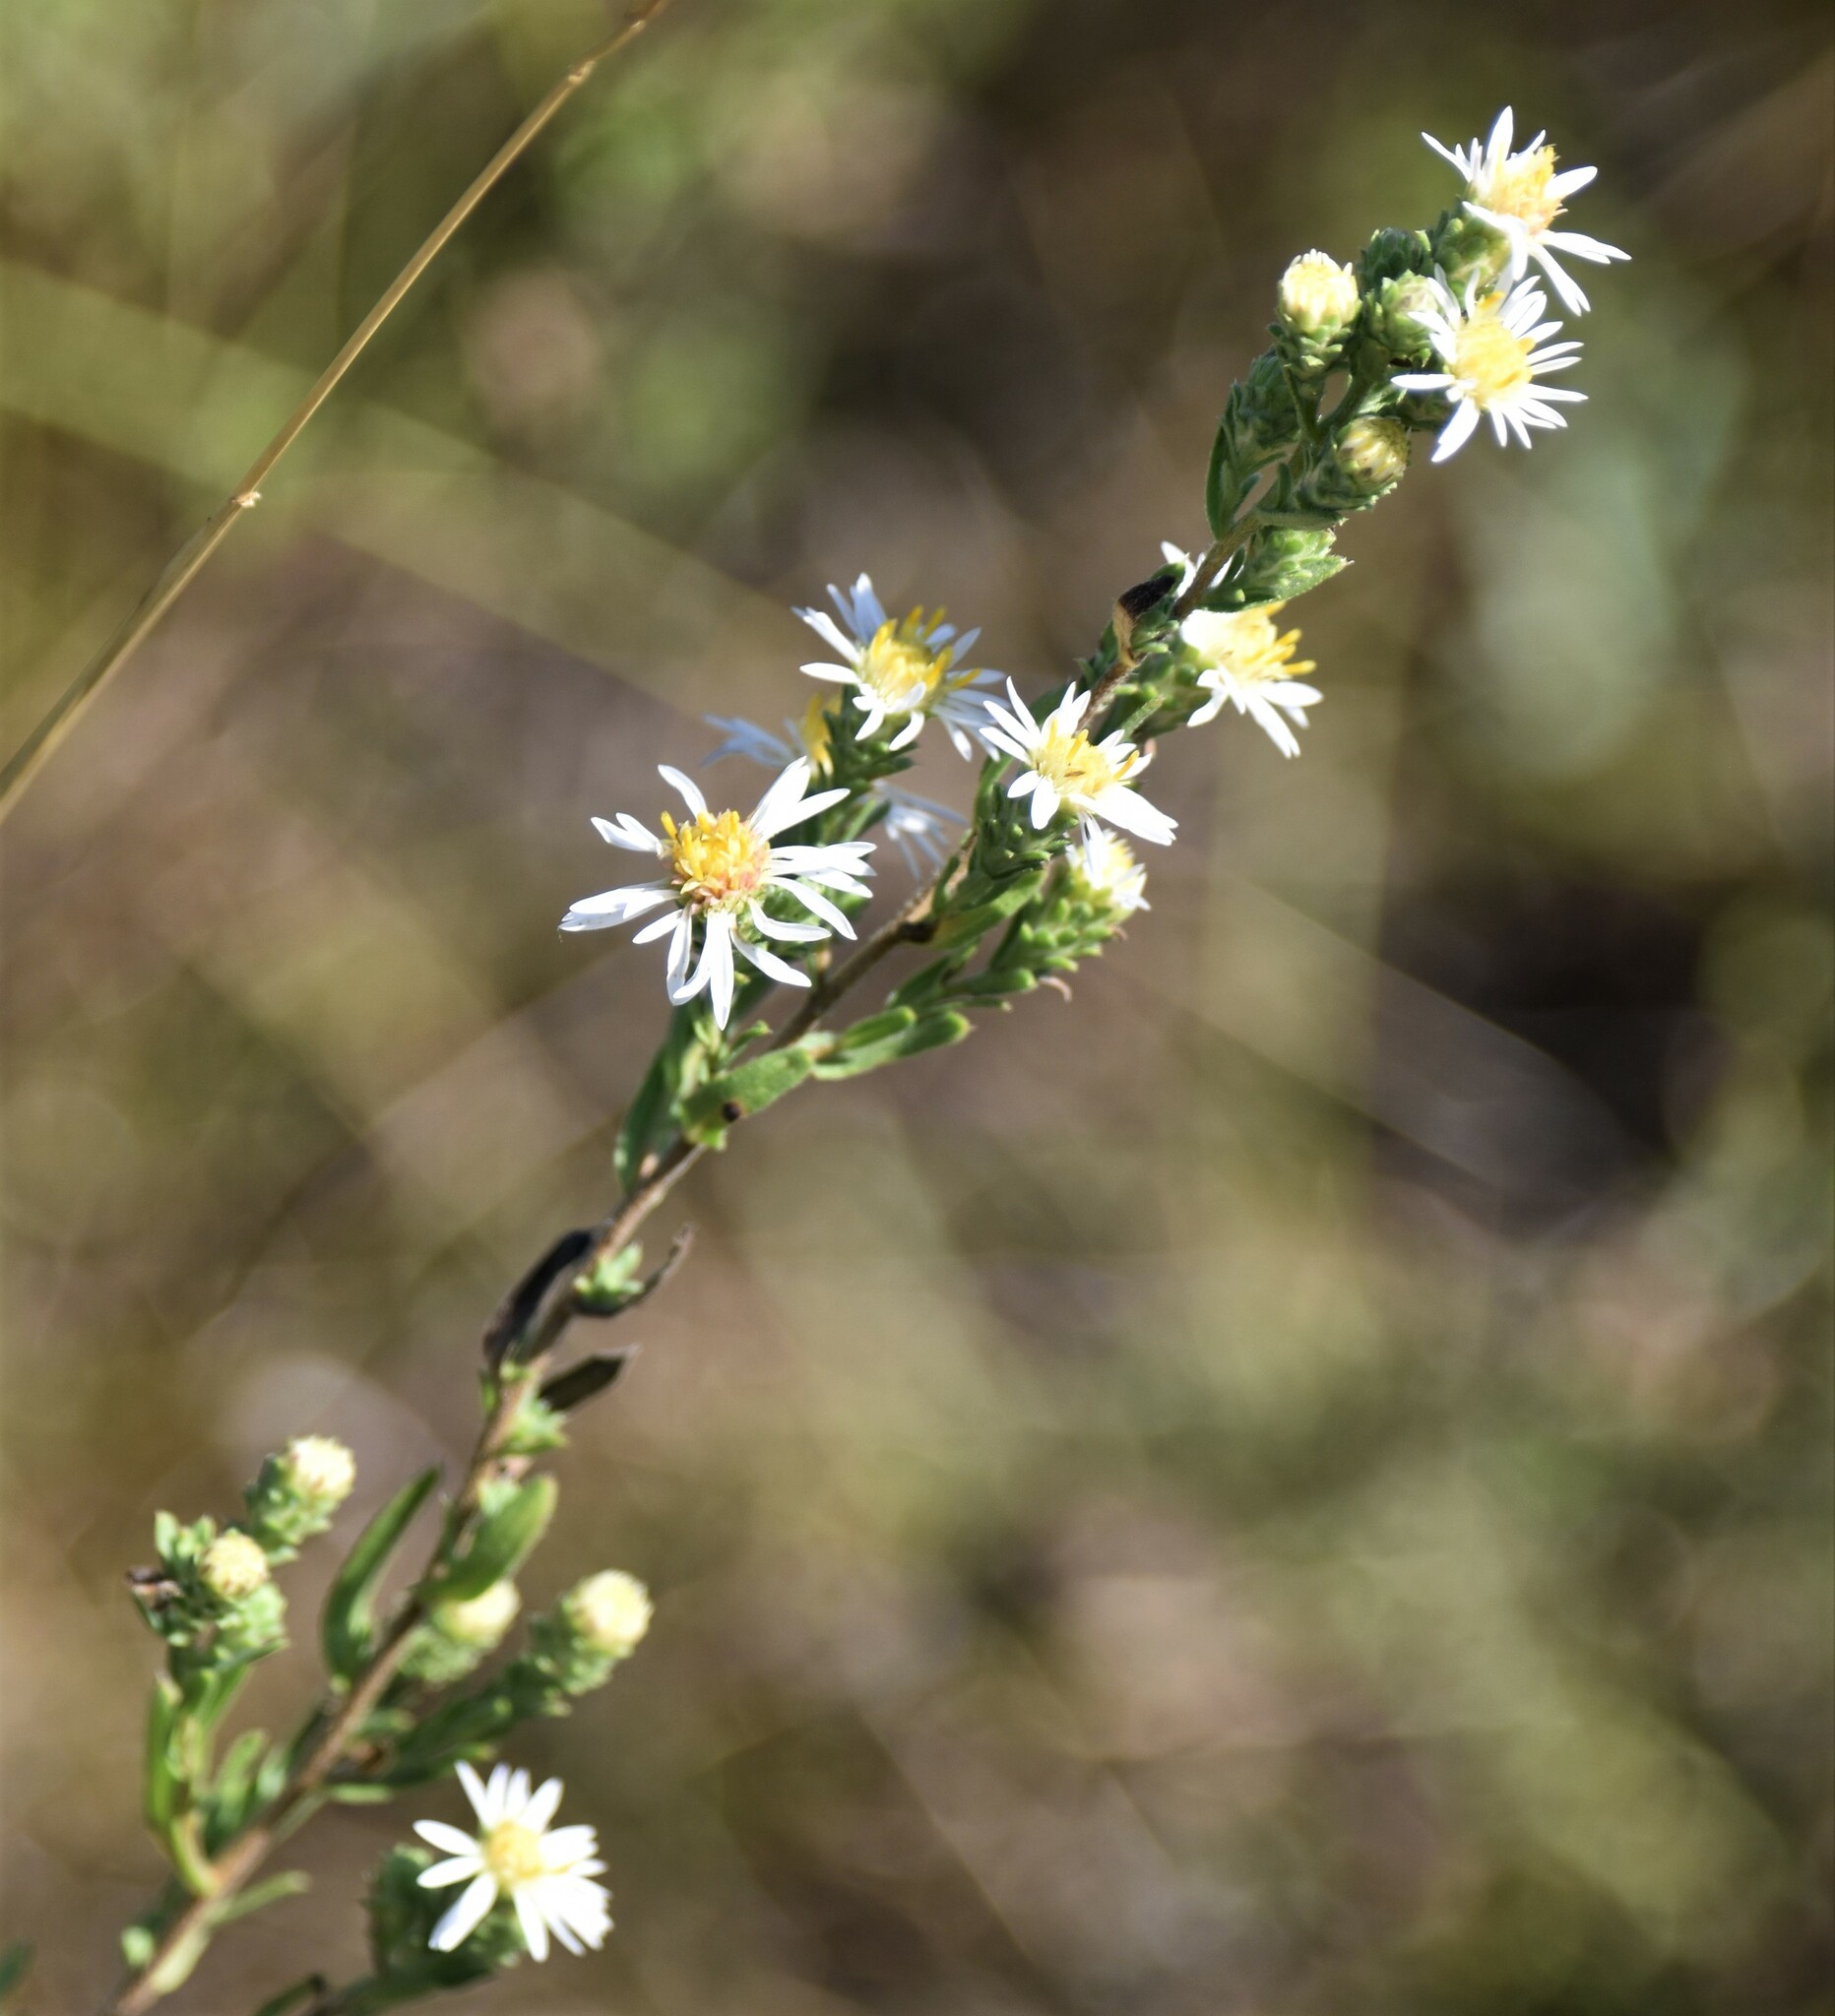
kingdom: Plantae
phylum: Tracheophyta
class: Magnoliopsida
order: Asterales
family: Asteraceae
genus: Symphyotrichum
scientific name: Symphyotrichum ericoides
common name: Heath aster
